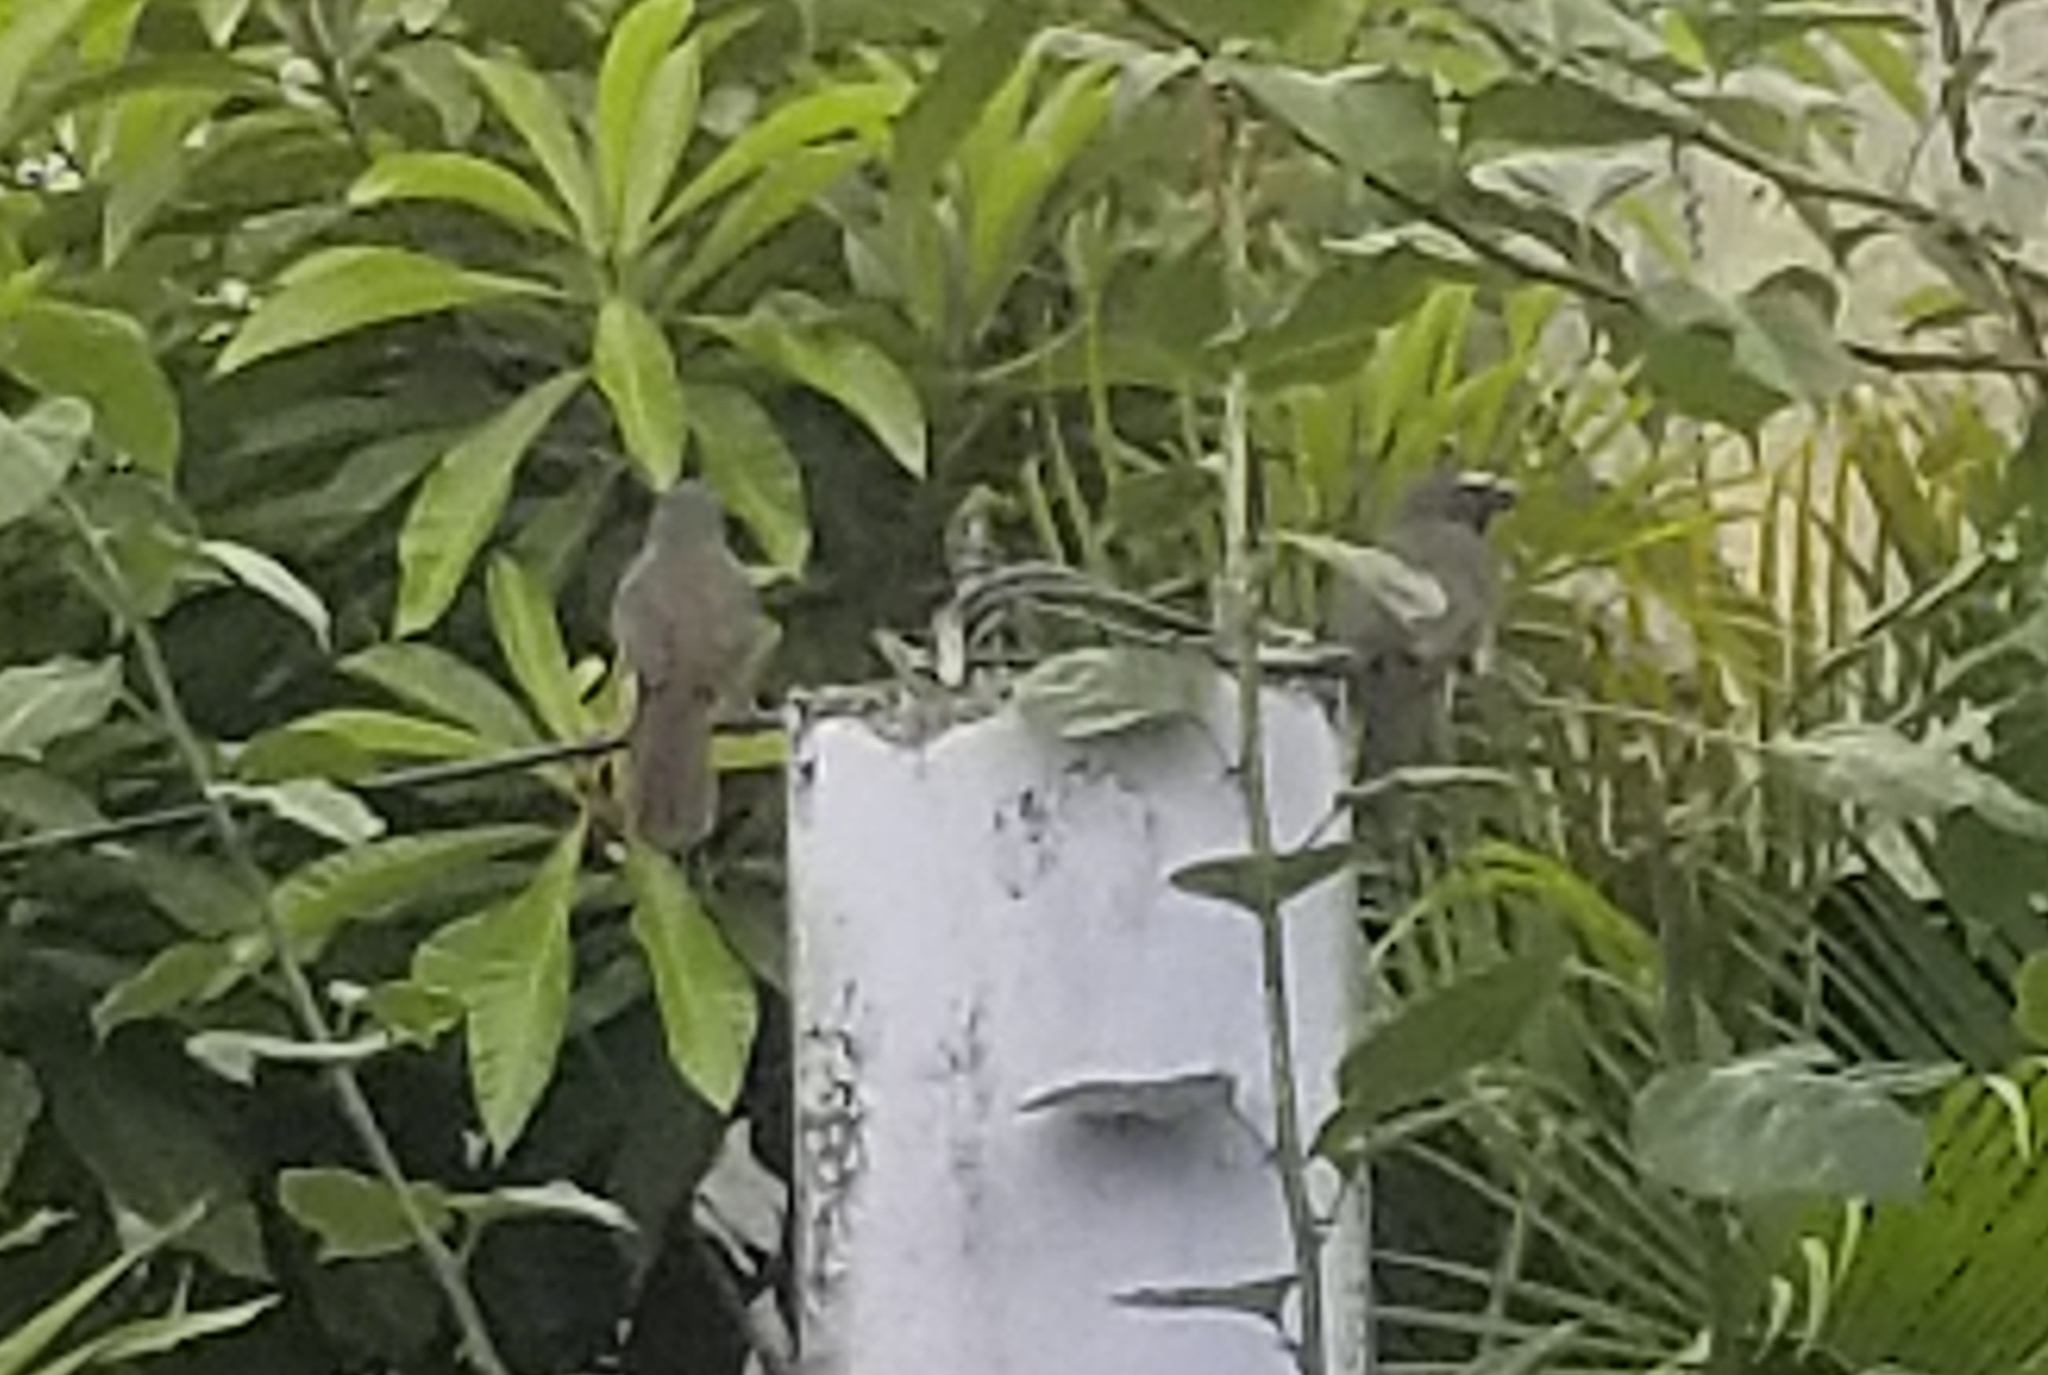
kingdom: Animalia
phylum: Chordata
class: Aves
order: Passeriformes
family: Thraupidae
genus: Saltator
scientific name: Saltator grandis
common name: Cinnamon-bellied saltator
